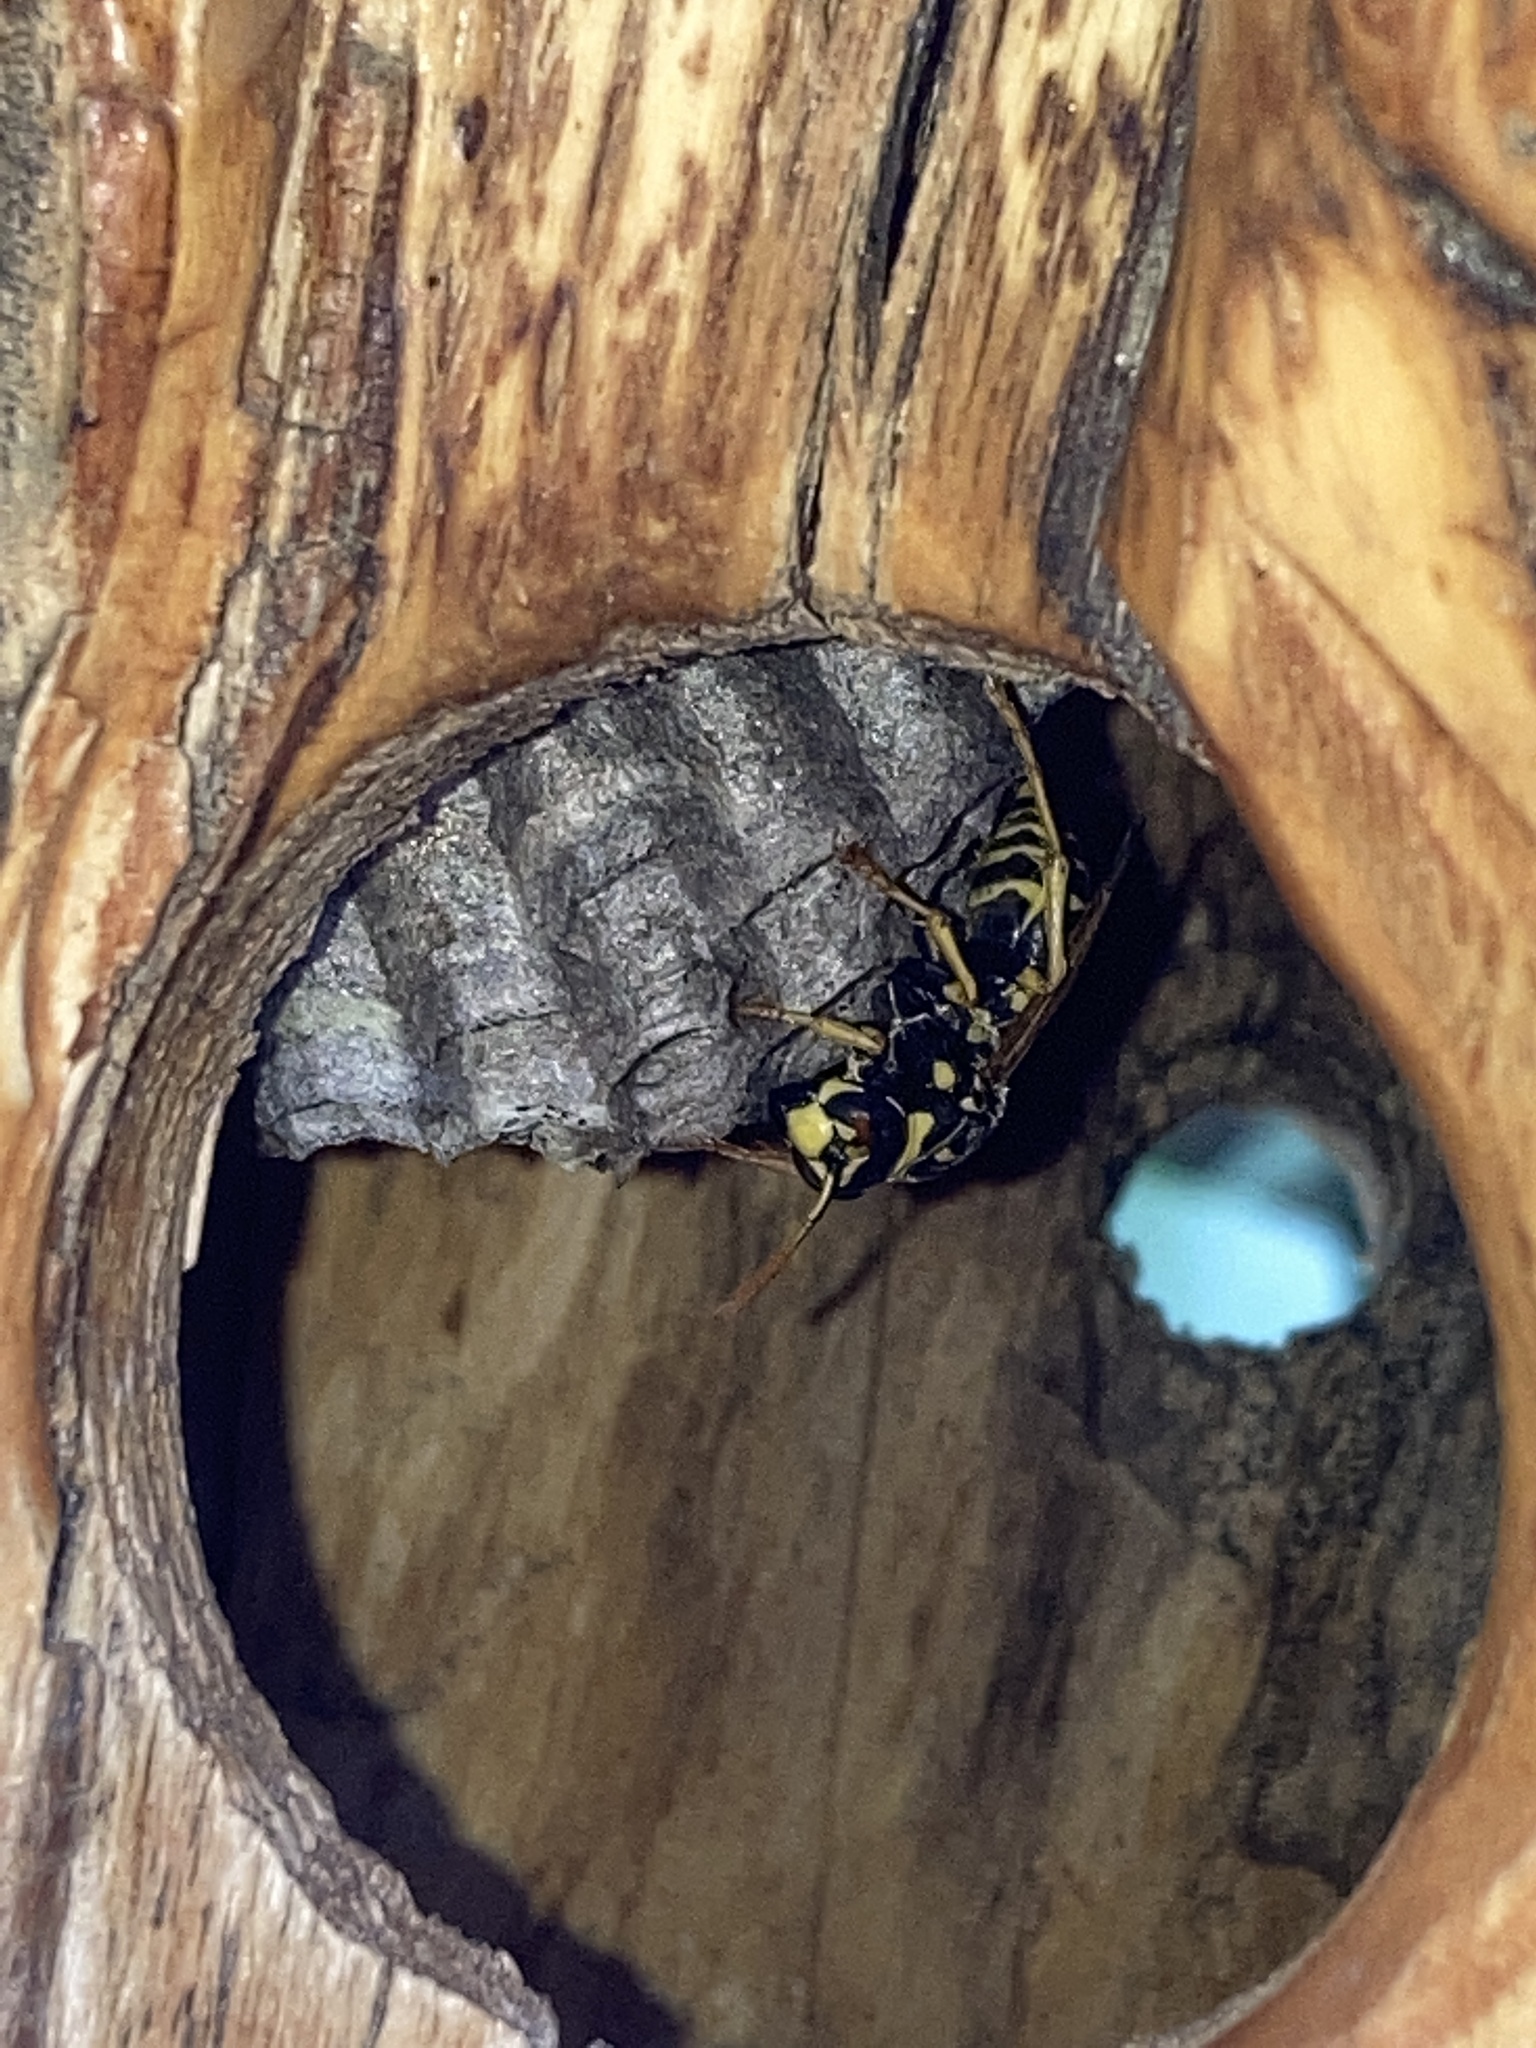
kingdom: Animalia
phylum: Arthropoda
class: Insecta
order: Hymenoptera
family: Eumenidae
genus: Polistes
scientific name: Polistes dominula
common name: Paper wasp
